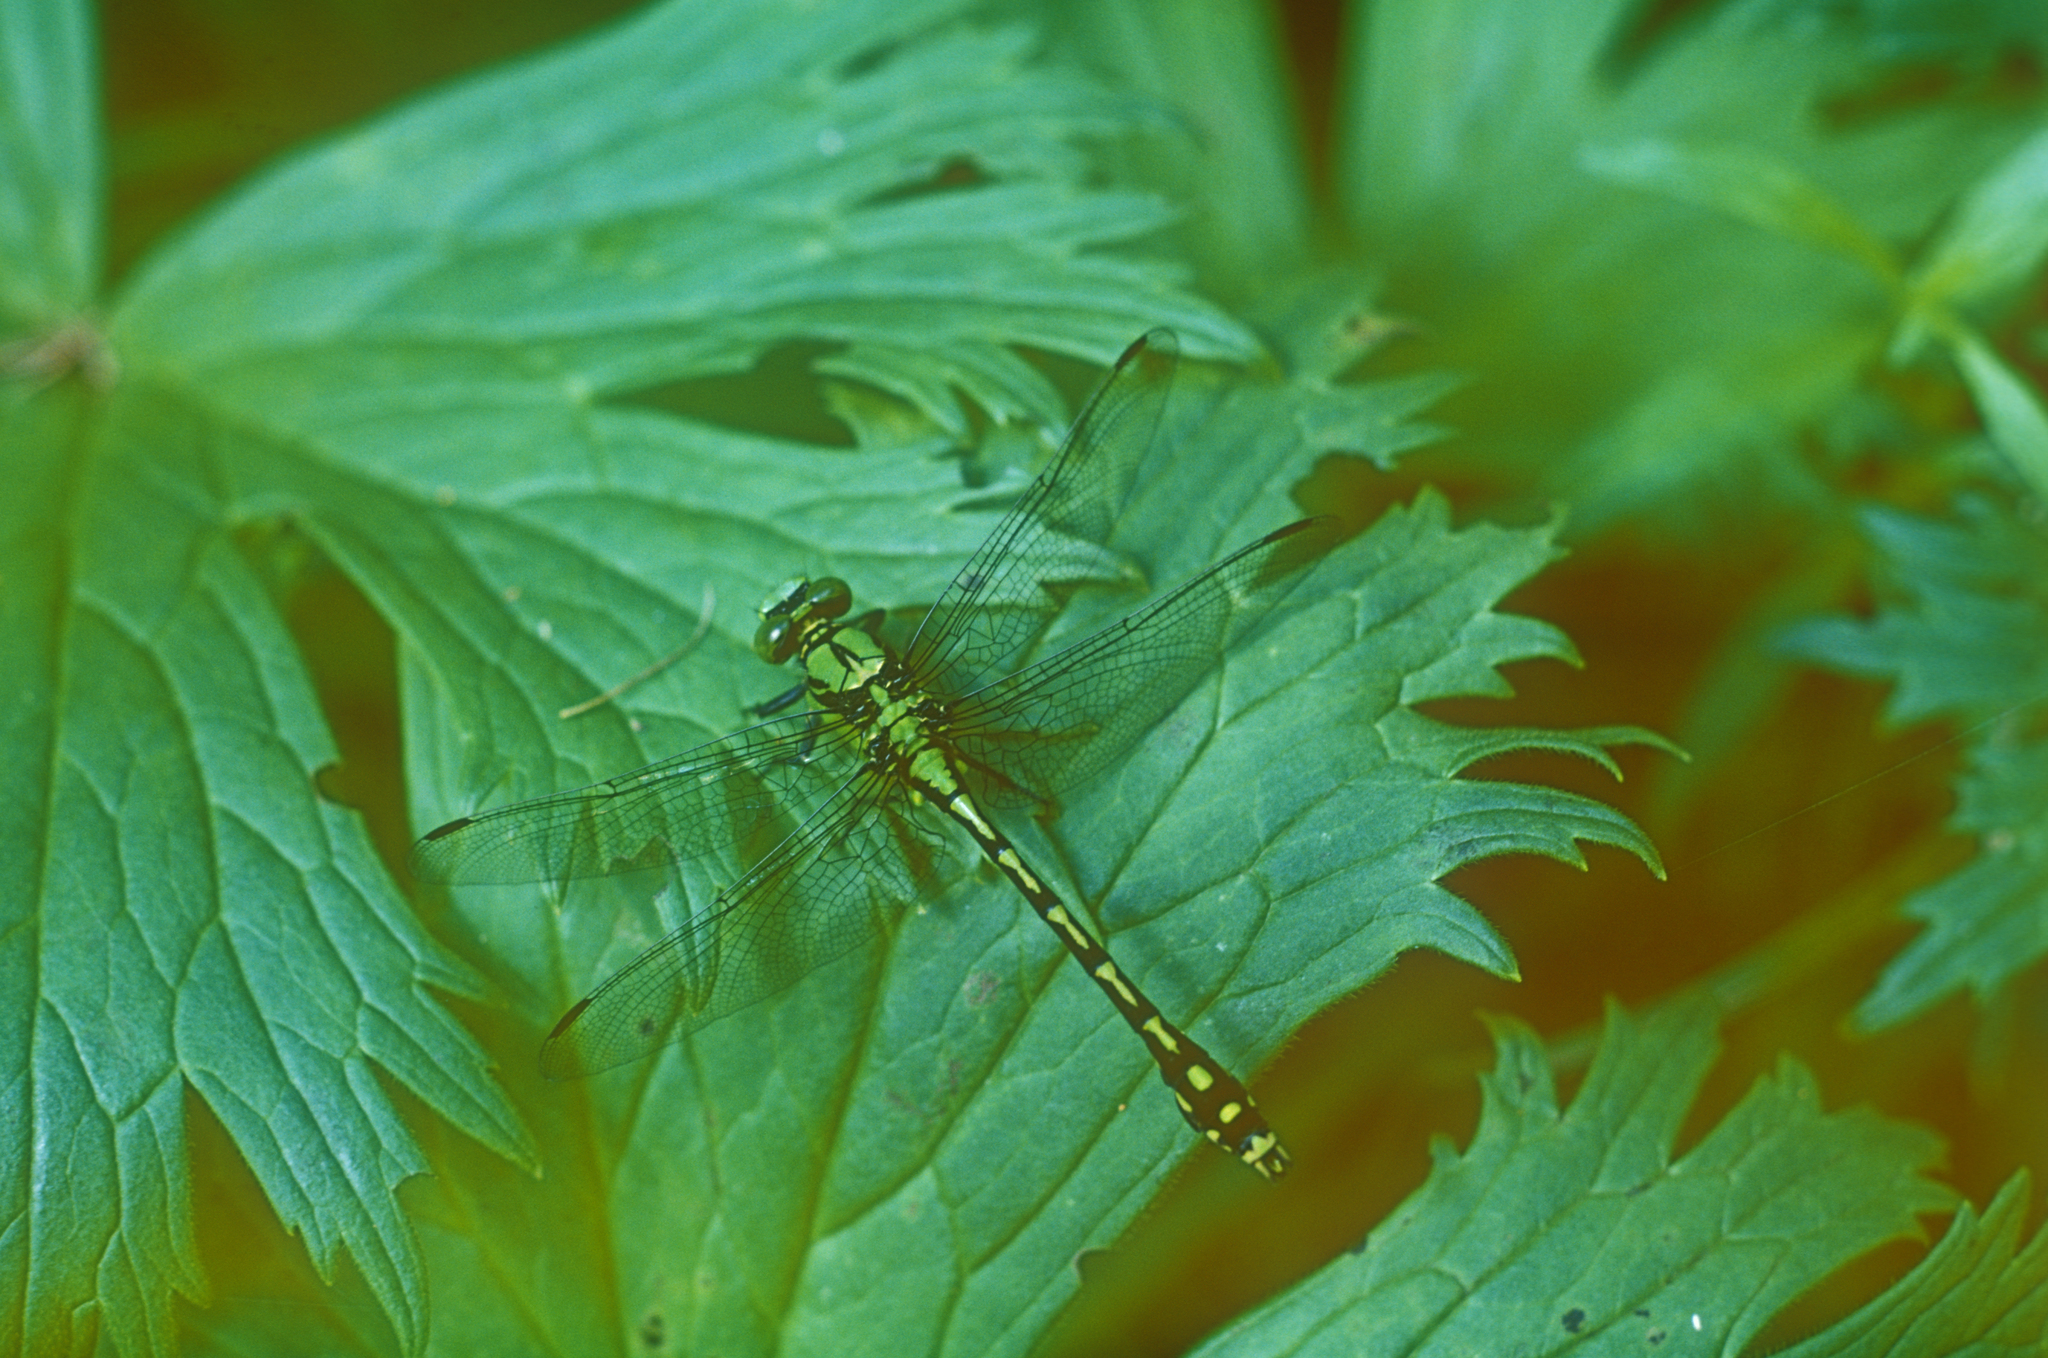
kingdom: Animalia
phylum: Arthropoda
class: Insecta
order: Odonata
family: Gomphidae
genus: Ophiogomphus
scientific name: Ophiogomphus obscurus
